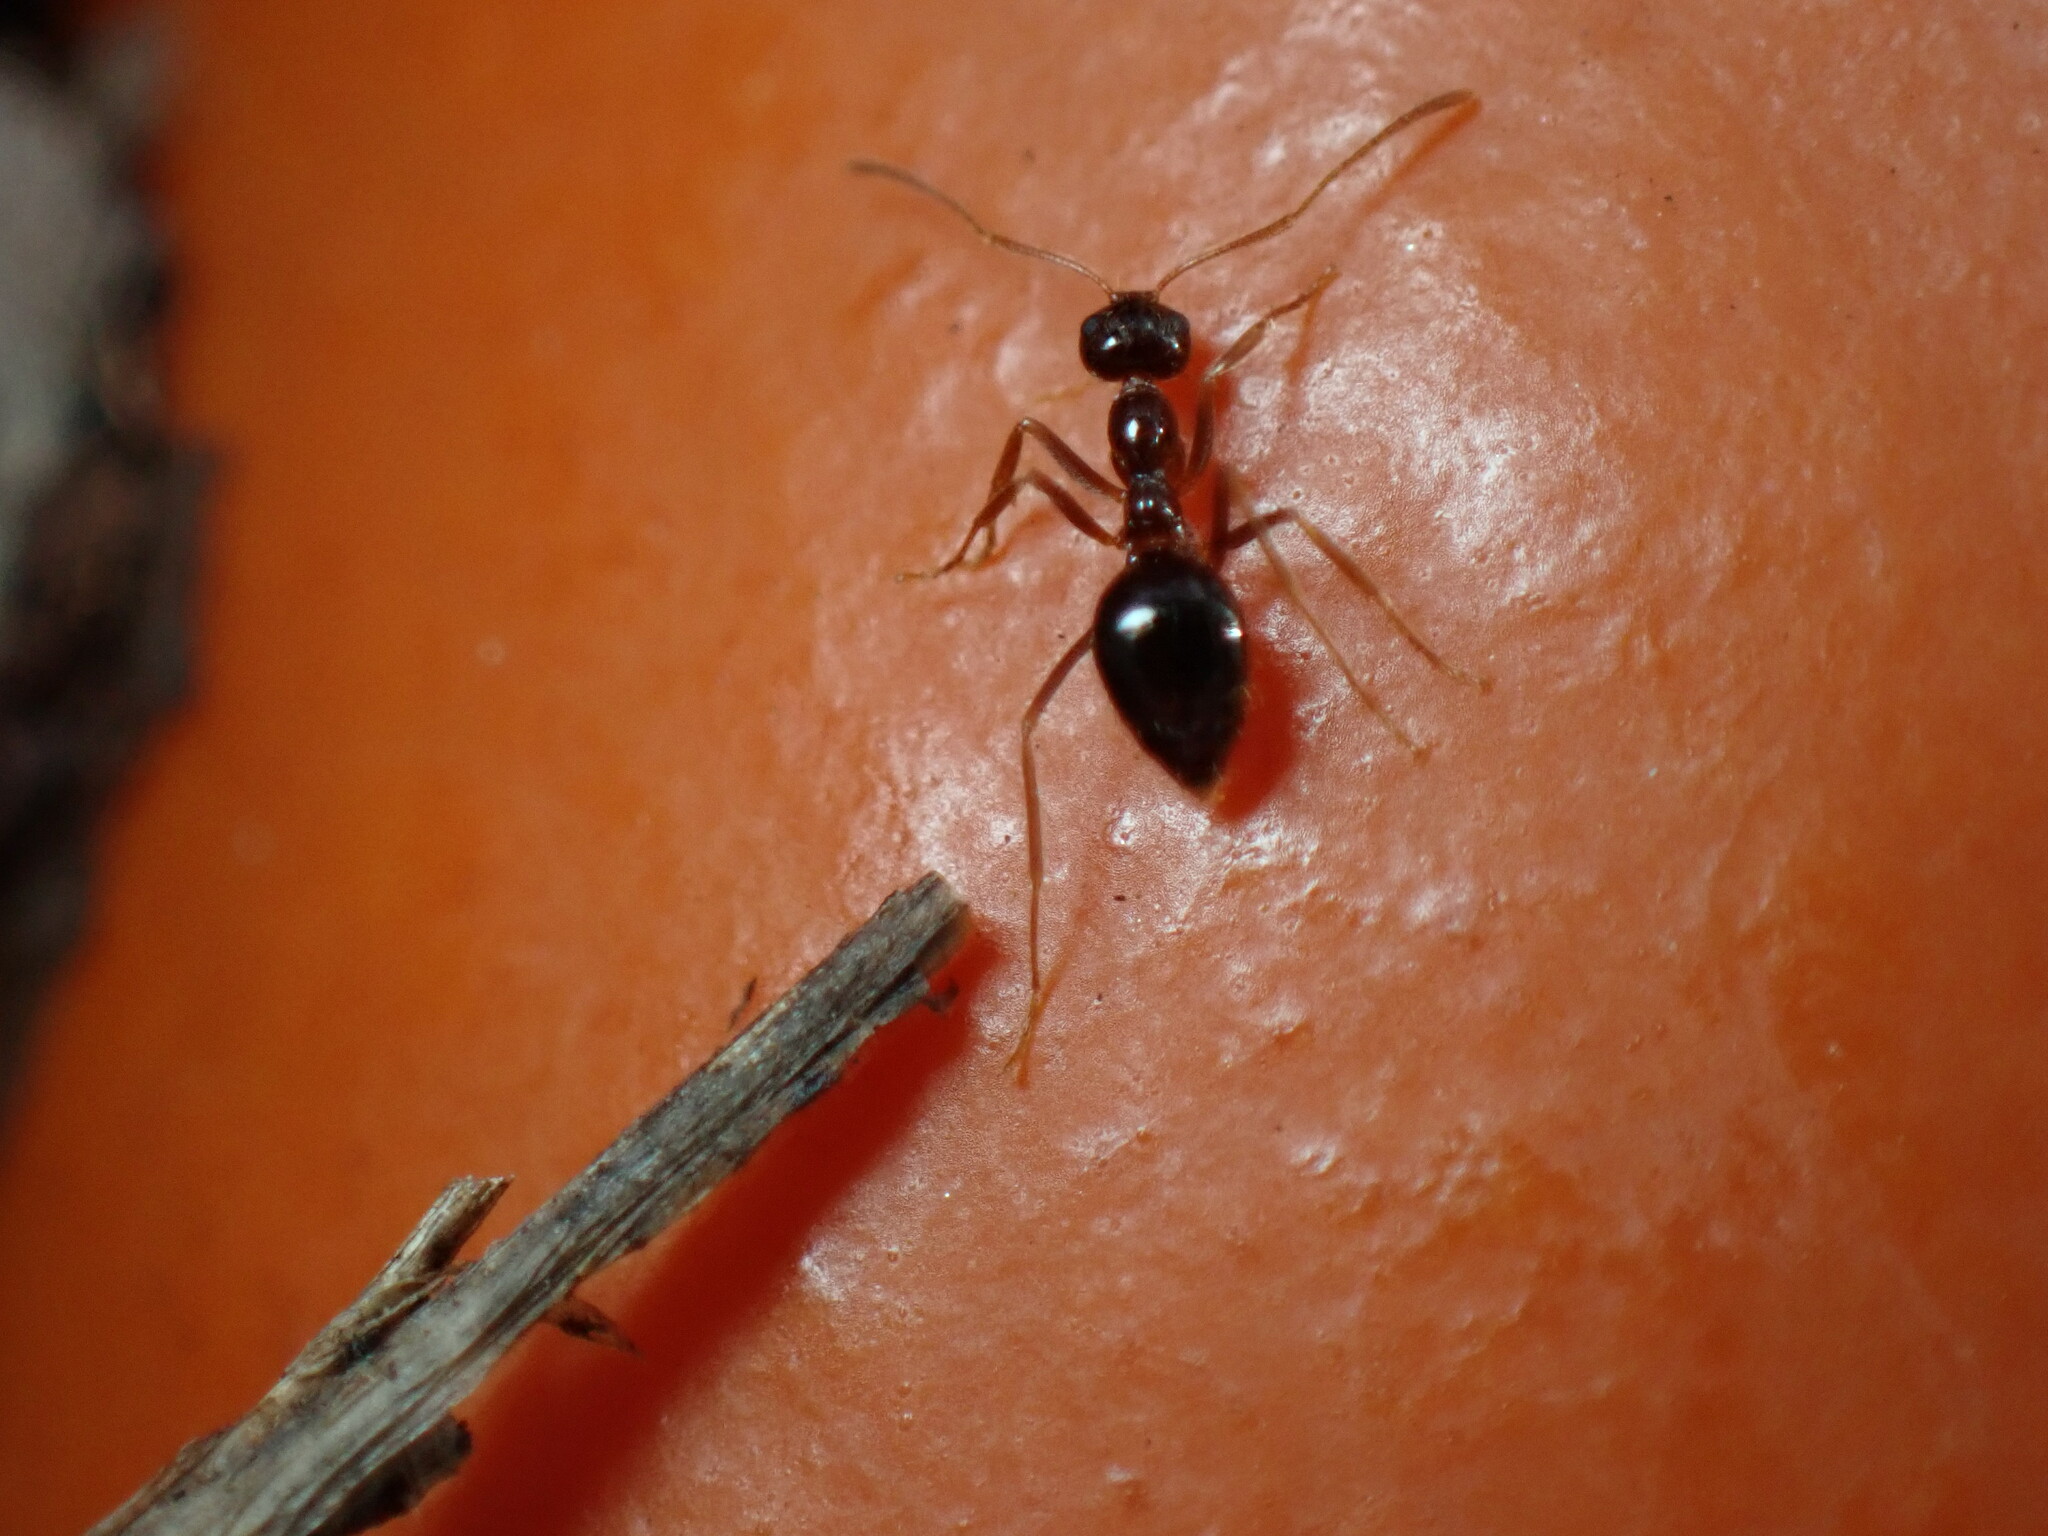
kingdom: Animalia
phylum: Arthropoda
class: Insecta
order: Hymenoptera
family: Formicidae
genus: Prenolepis
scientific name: Prenolepis imparis
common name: Small honey ant
